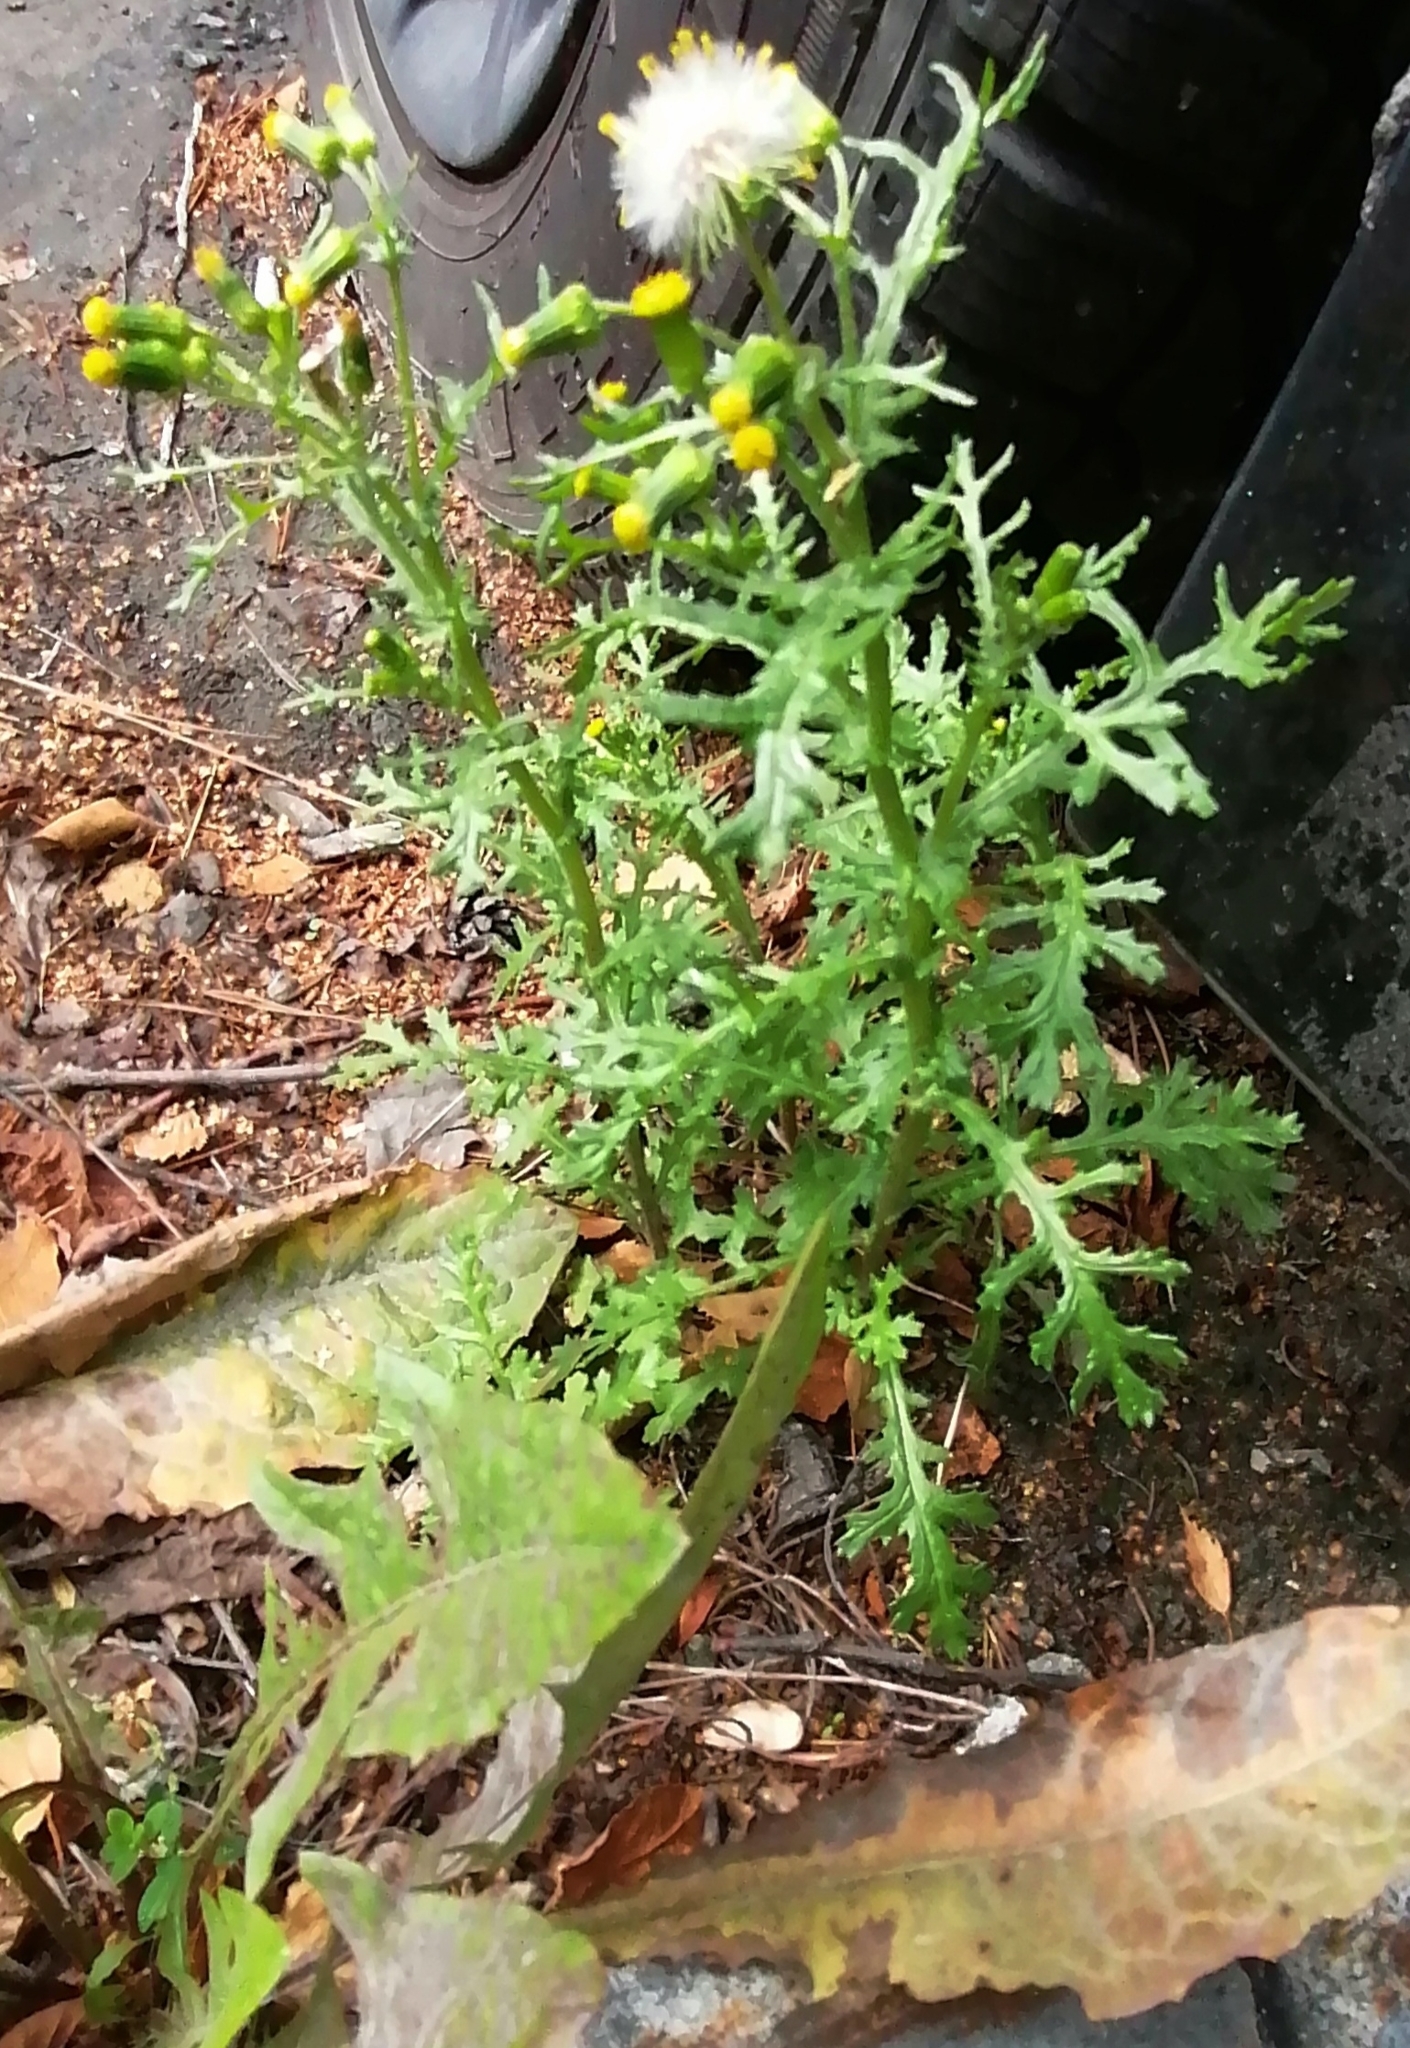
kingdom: Plantae
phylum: Tracheophyta
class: Magnoliopsida
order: Asterales
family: Asteraceae
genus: Senecio
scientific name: Senecio vulgaris
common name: Old-man-in-the-spring
